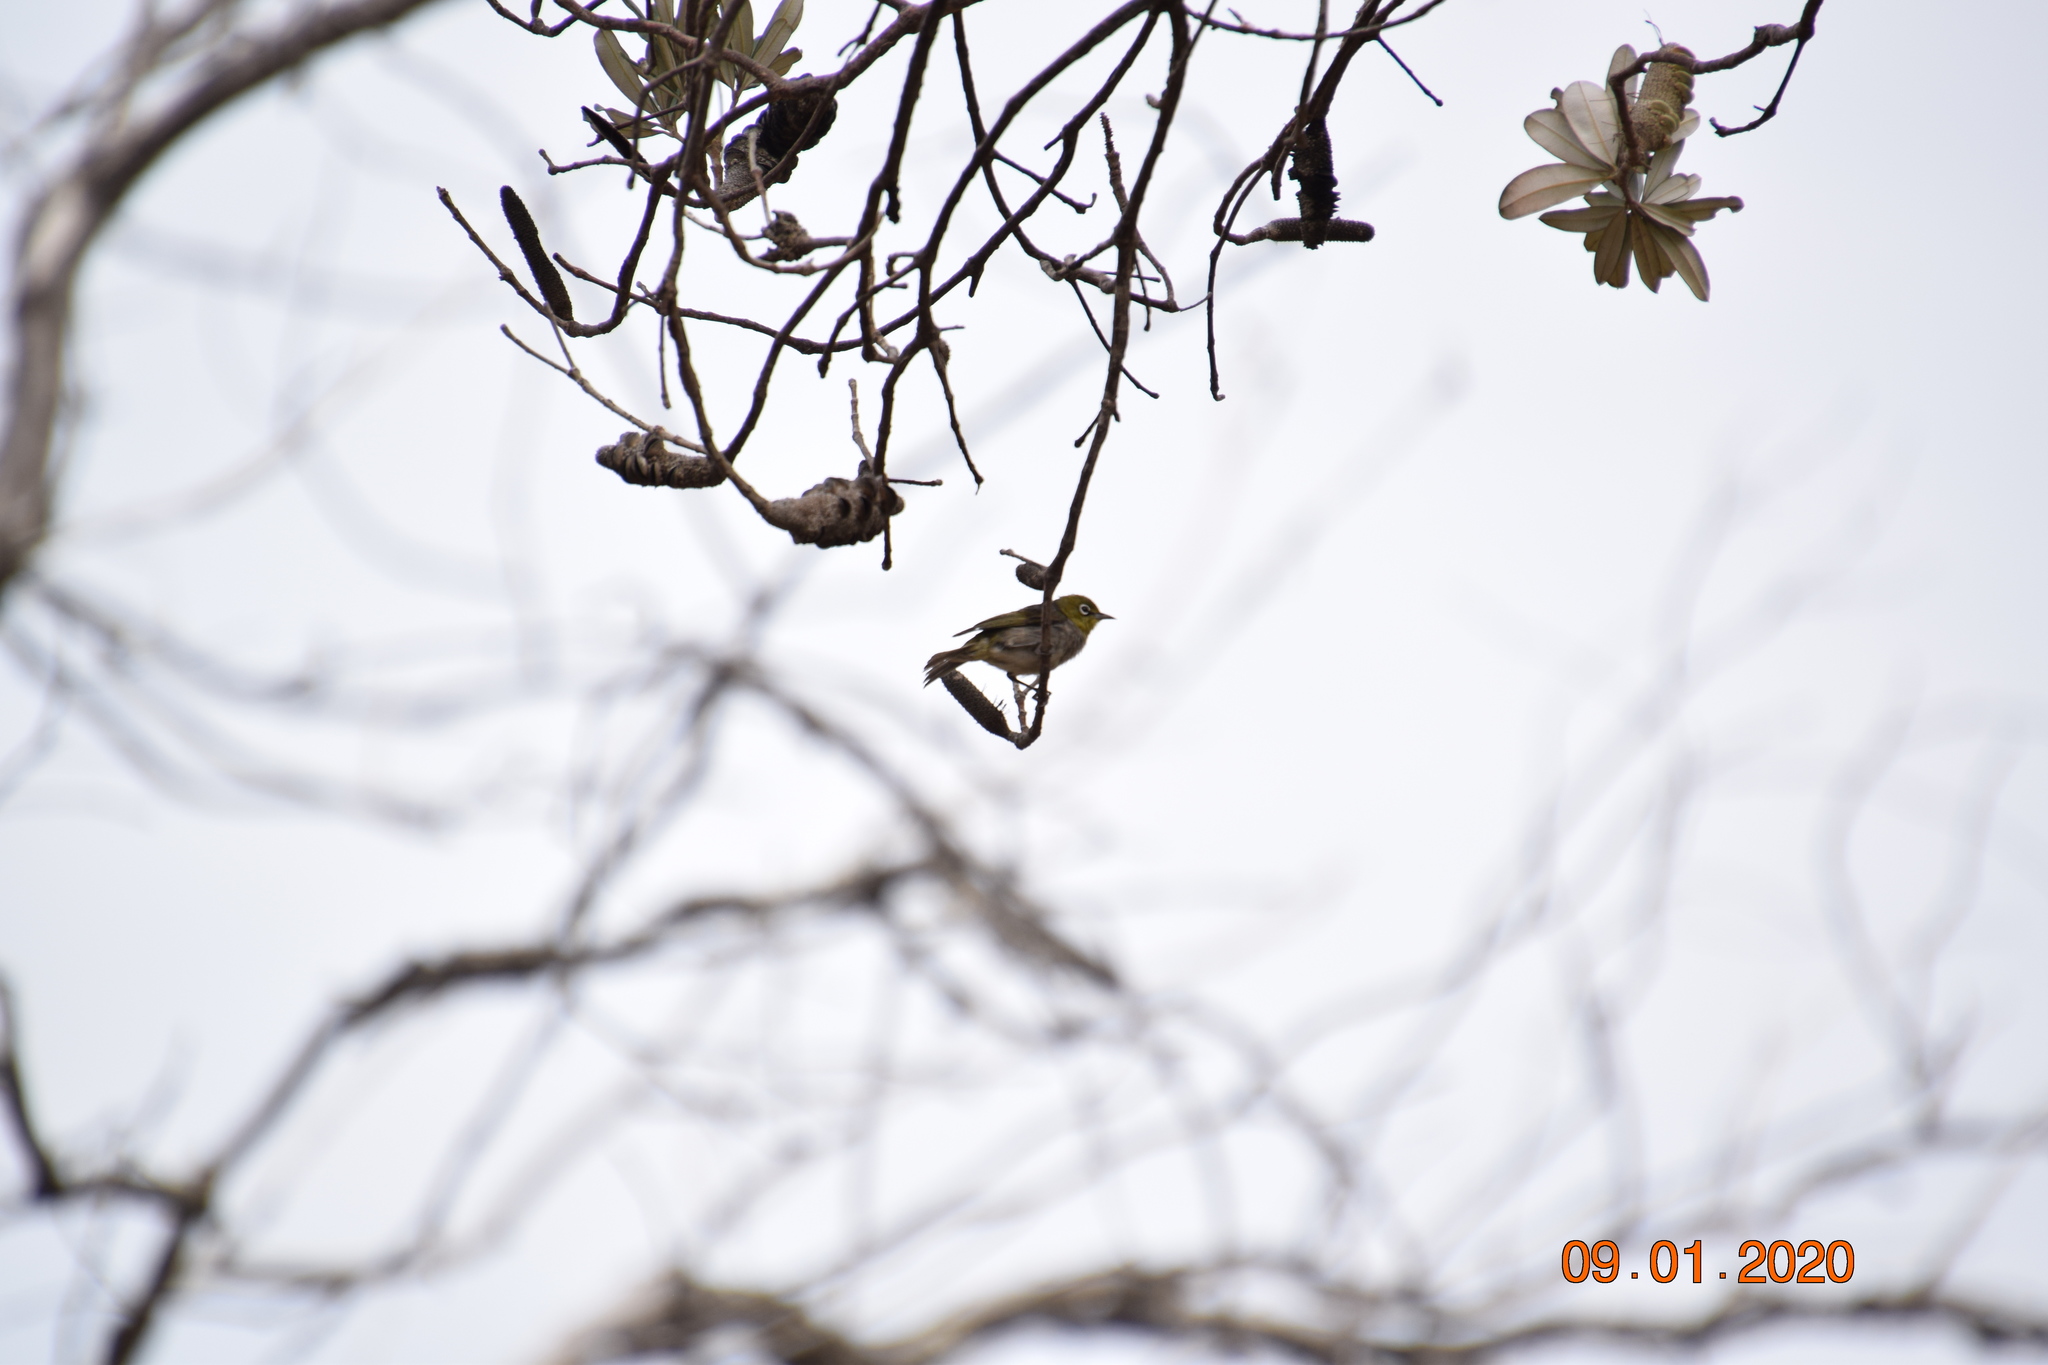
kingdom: Animalia
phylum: Chordata
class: Aves
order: Passeriformes
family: Zosteropidae
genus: Zosterops
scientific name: Zosterops lateralis
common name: Silvereye
